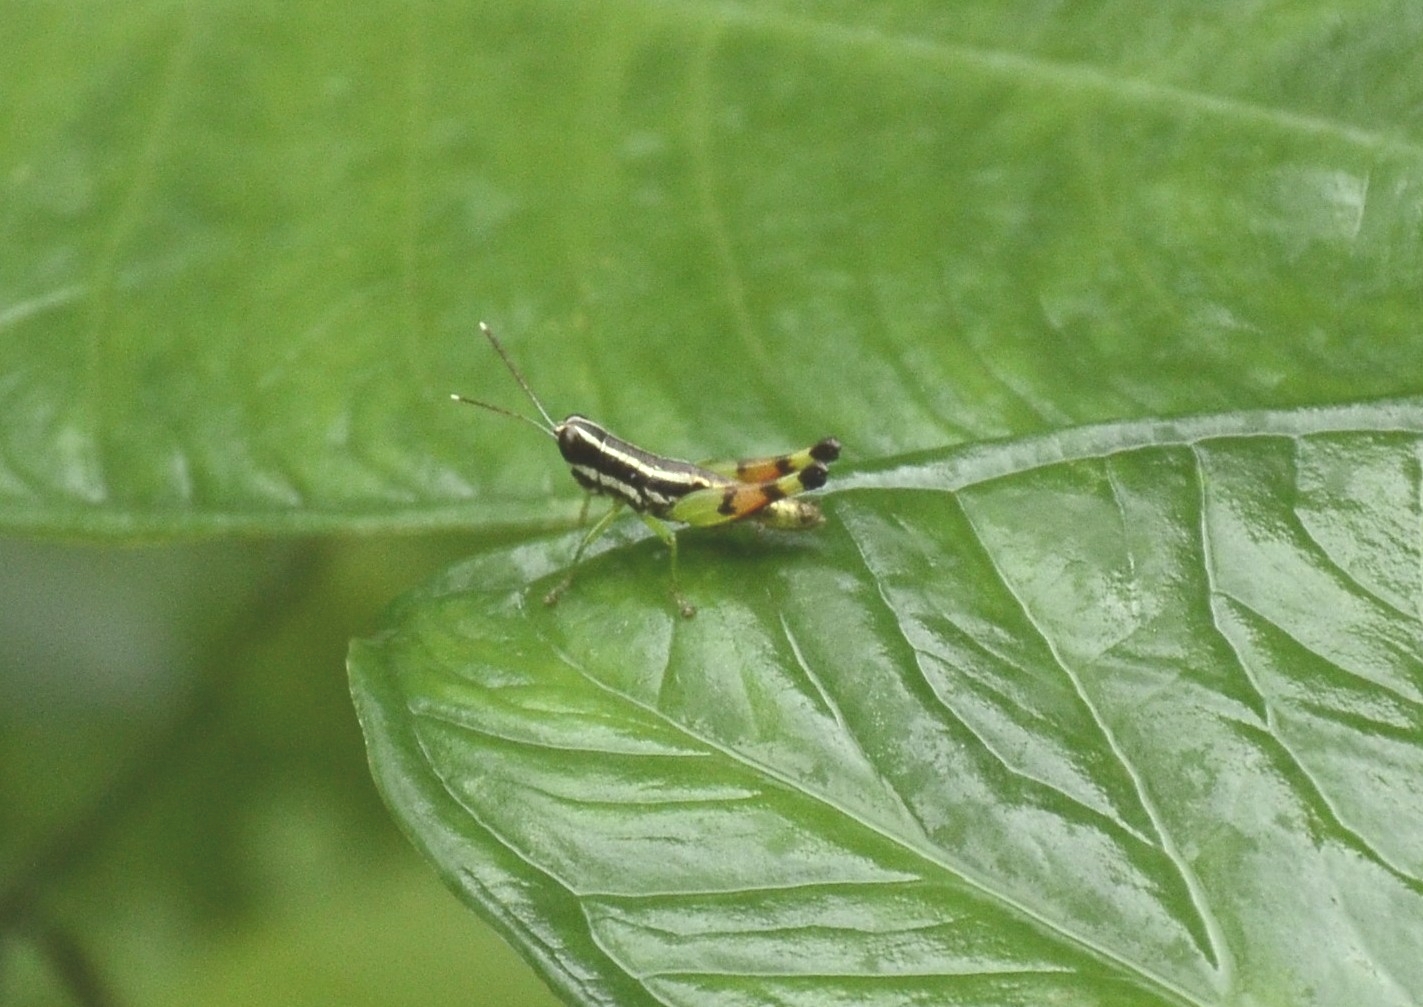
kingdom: Animalia
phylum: Arthropoda
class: Insecta
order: Orthoptera
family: Acrididae
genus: Chitaura
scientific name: Chitaura indica
